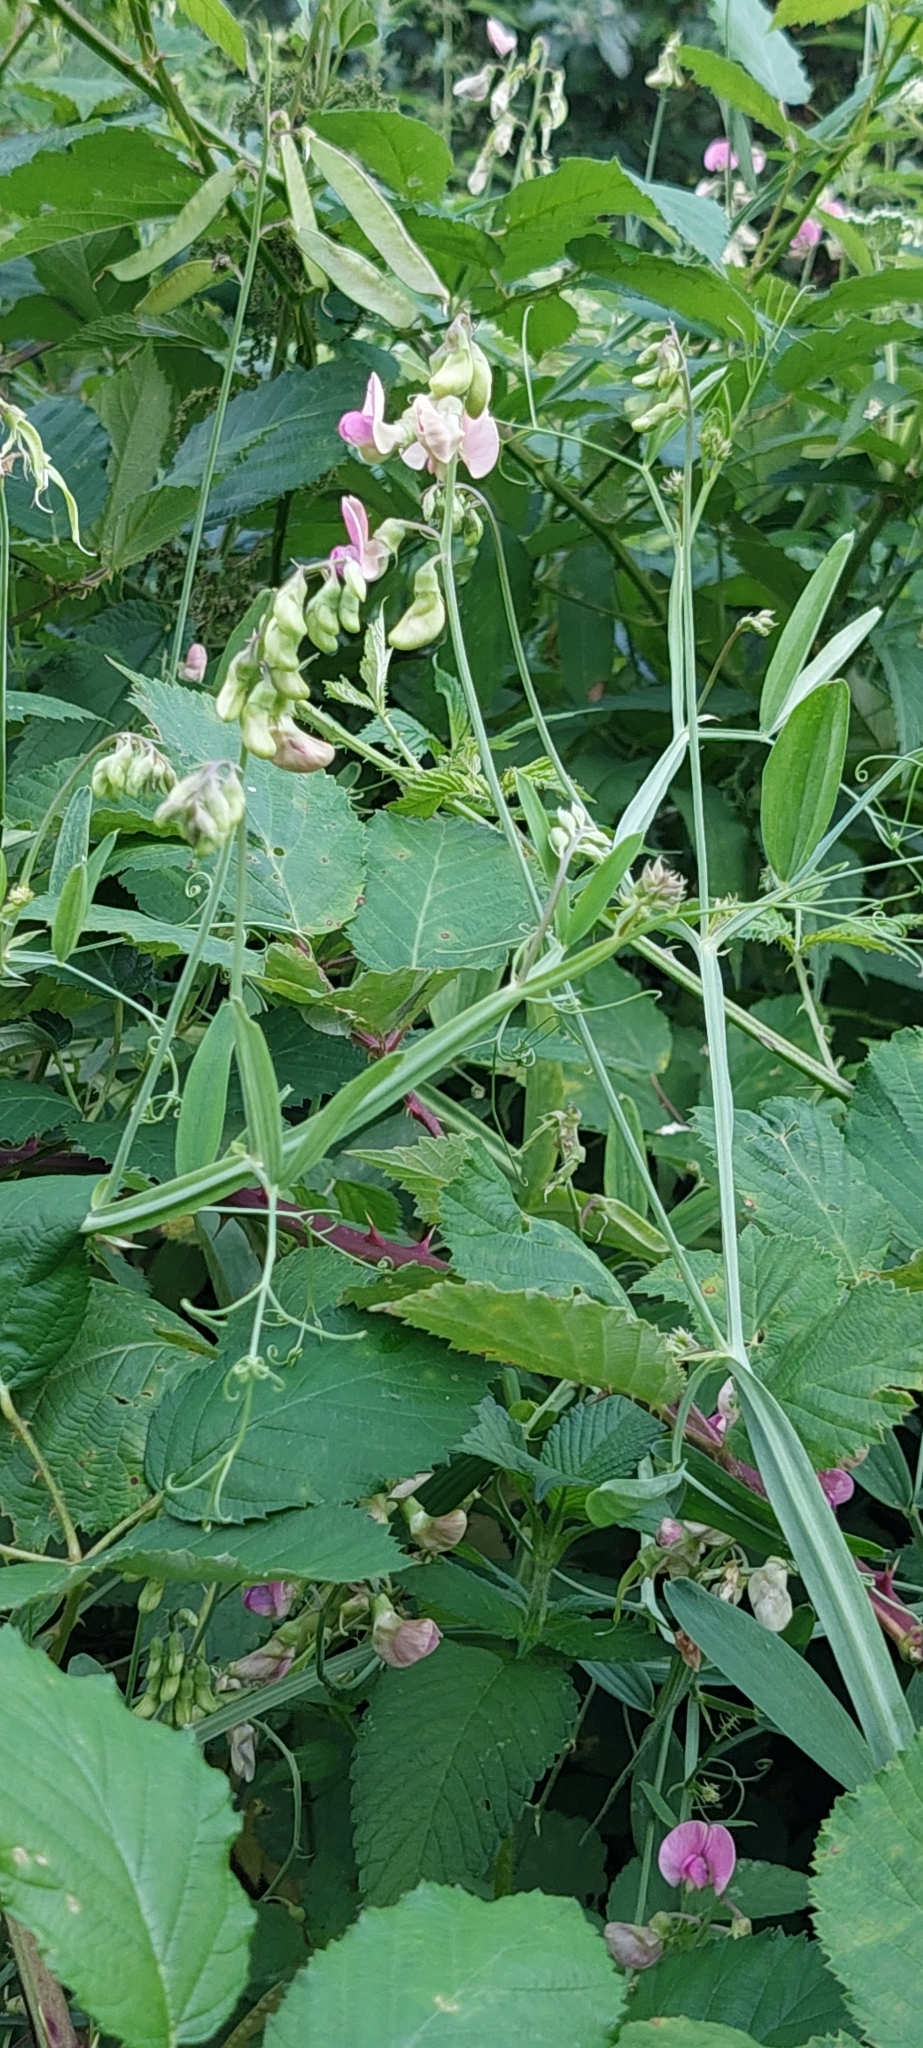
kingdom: Plantae
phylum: Tracheophyta
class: Magnoliopsida
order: Fabales
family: Fabaceae
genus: Lathyrus
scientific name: Lathyrus sylvestris
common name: Flat pea
